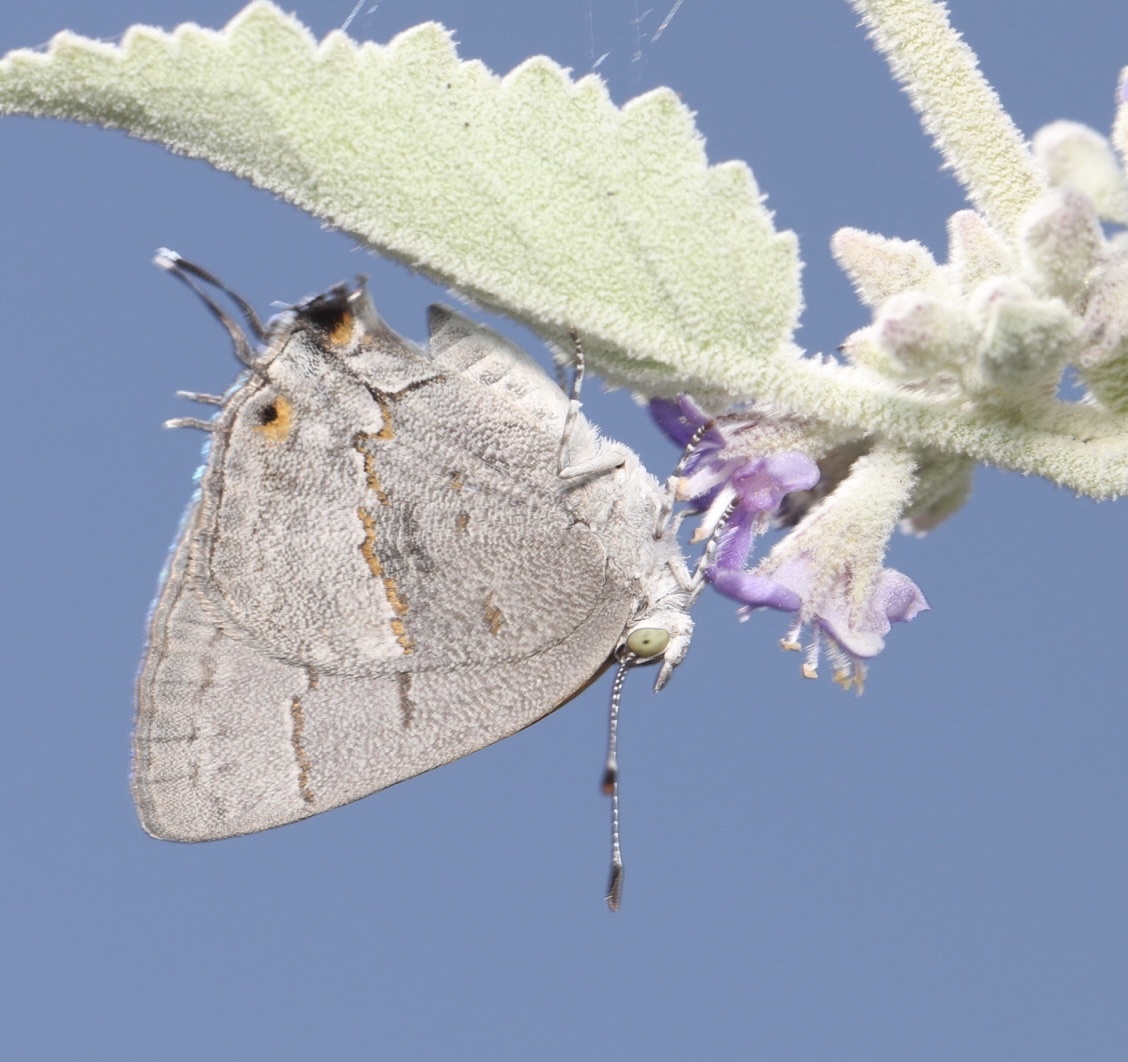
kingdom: Animalia
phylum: Arthropoda
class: Insecta
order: Lepidoptera
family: Lycaenidae
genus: Ministrymon
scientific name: Ministrymon leda
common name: Leda ministreak
